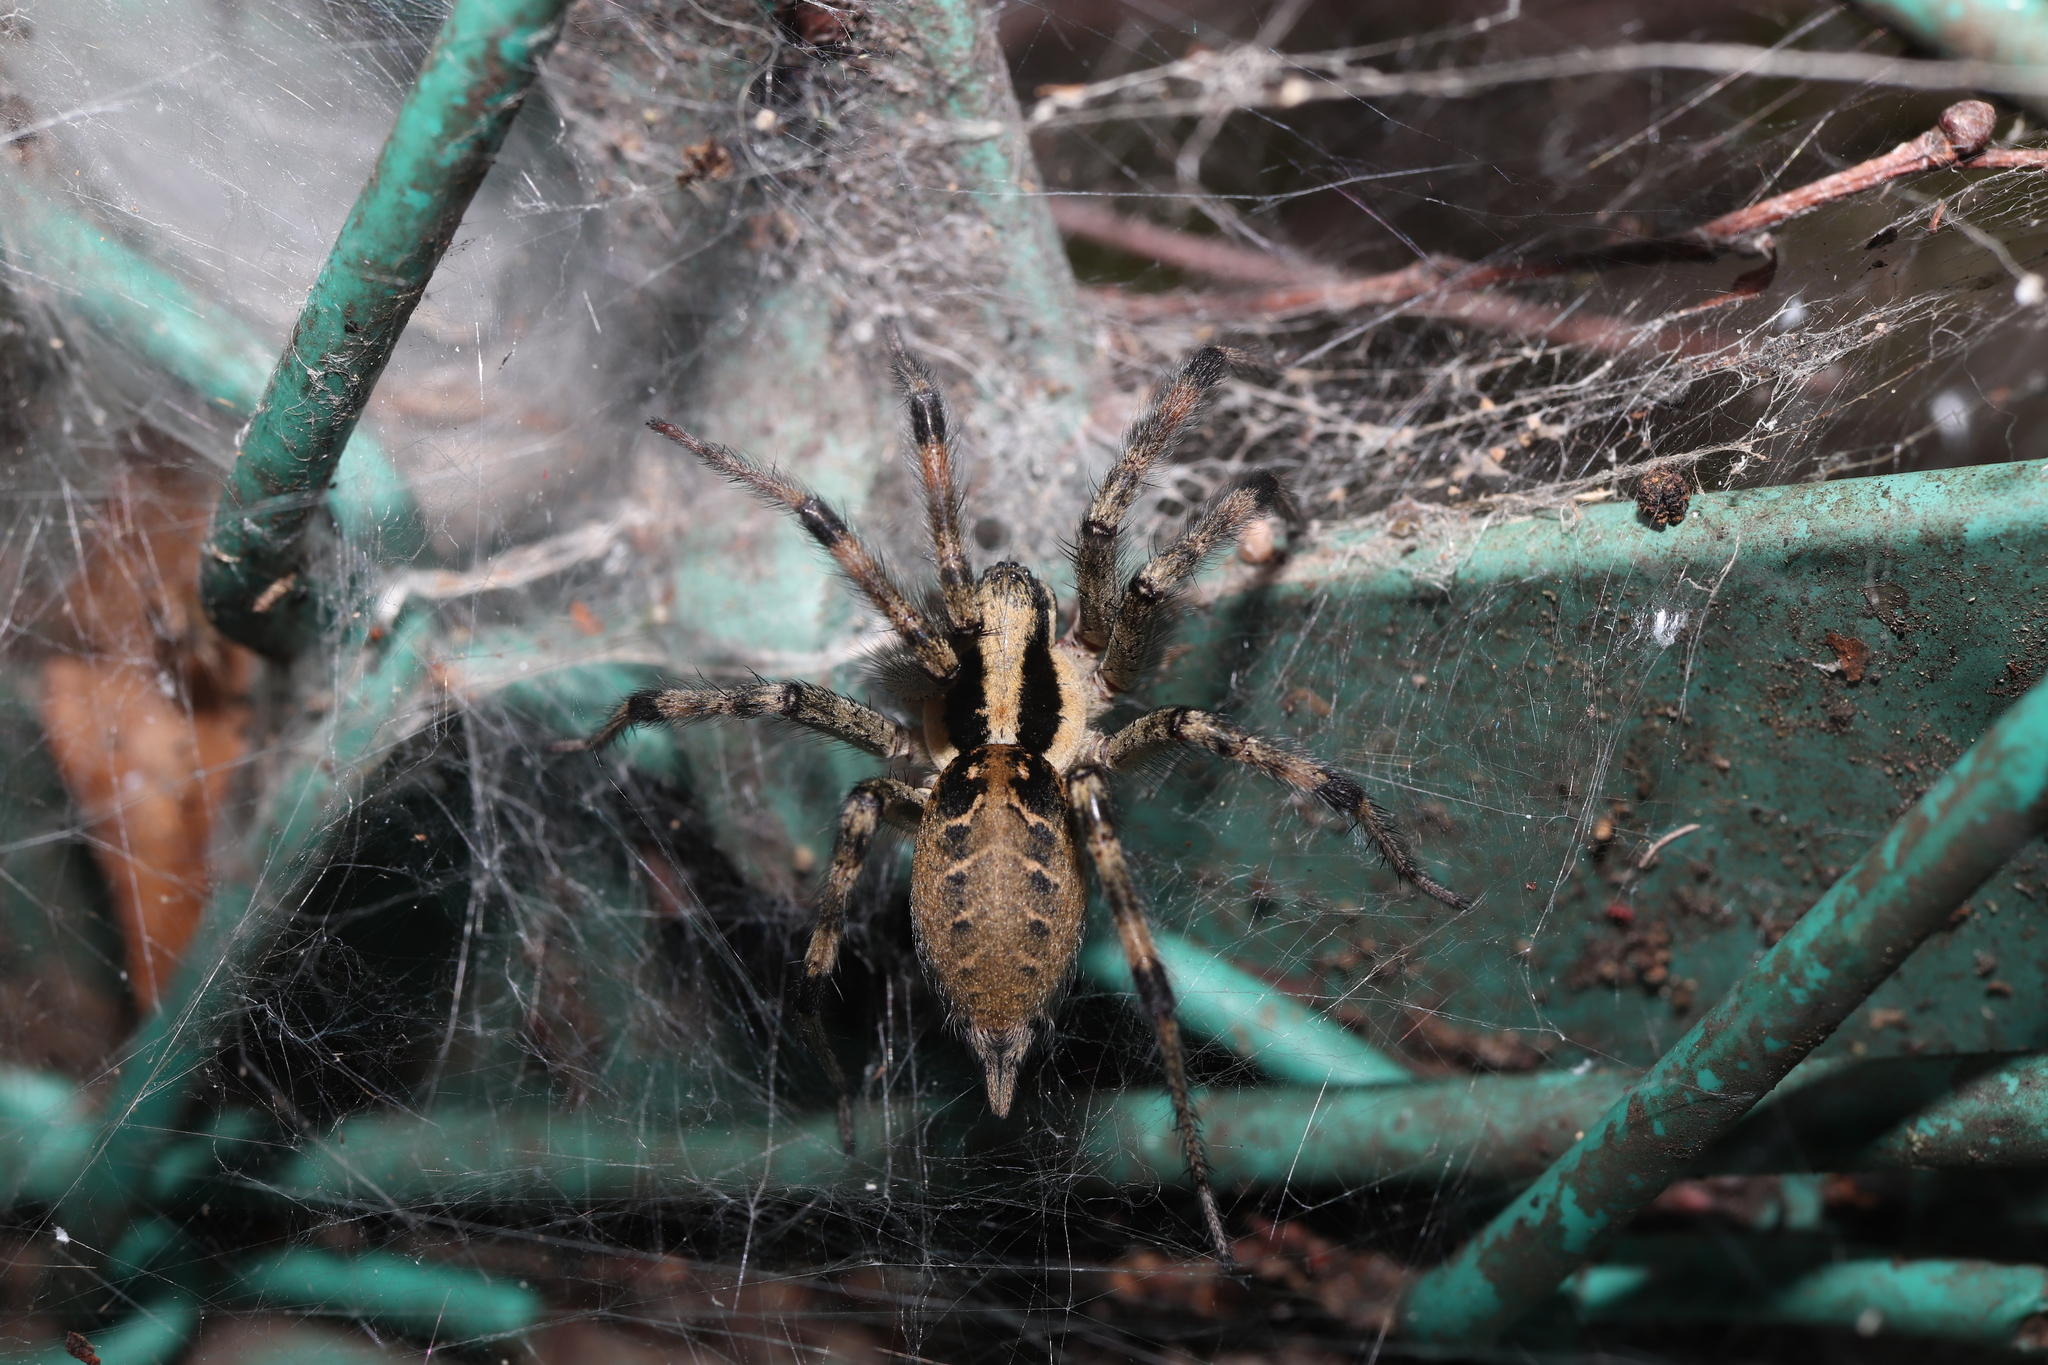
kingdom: Animalia
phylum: Arthropoda
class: Arachnida
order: Araneae
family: Agelenidae
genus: Agelena
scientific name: Agelena silvatica
